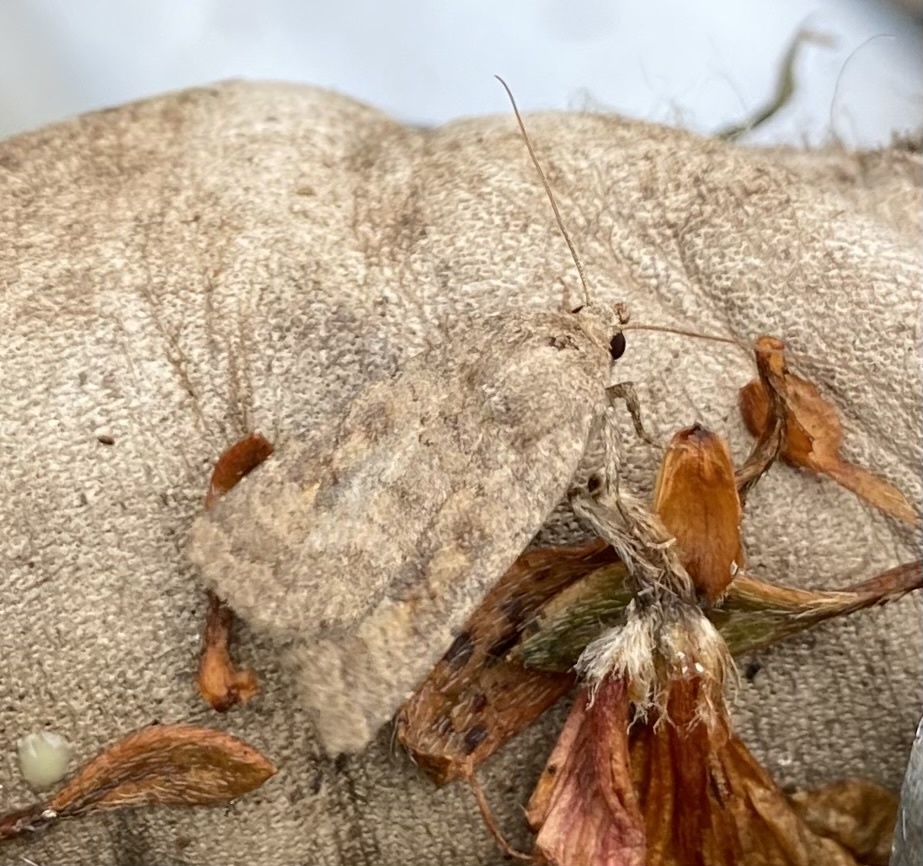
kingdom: Animalia
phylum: Arthropoda
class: Insecta
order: Lepidoptera
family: Noctuidae
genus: Caradrina
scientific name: Caradrina morpheus
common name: Mottled rustic
